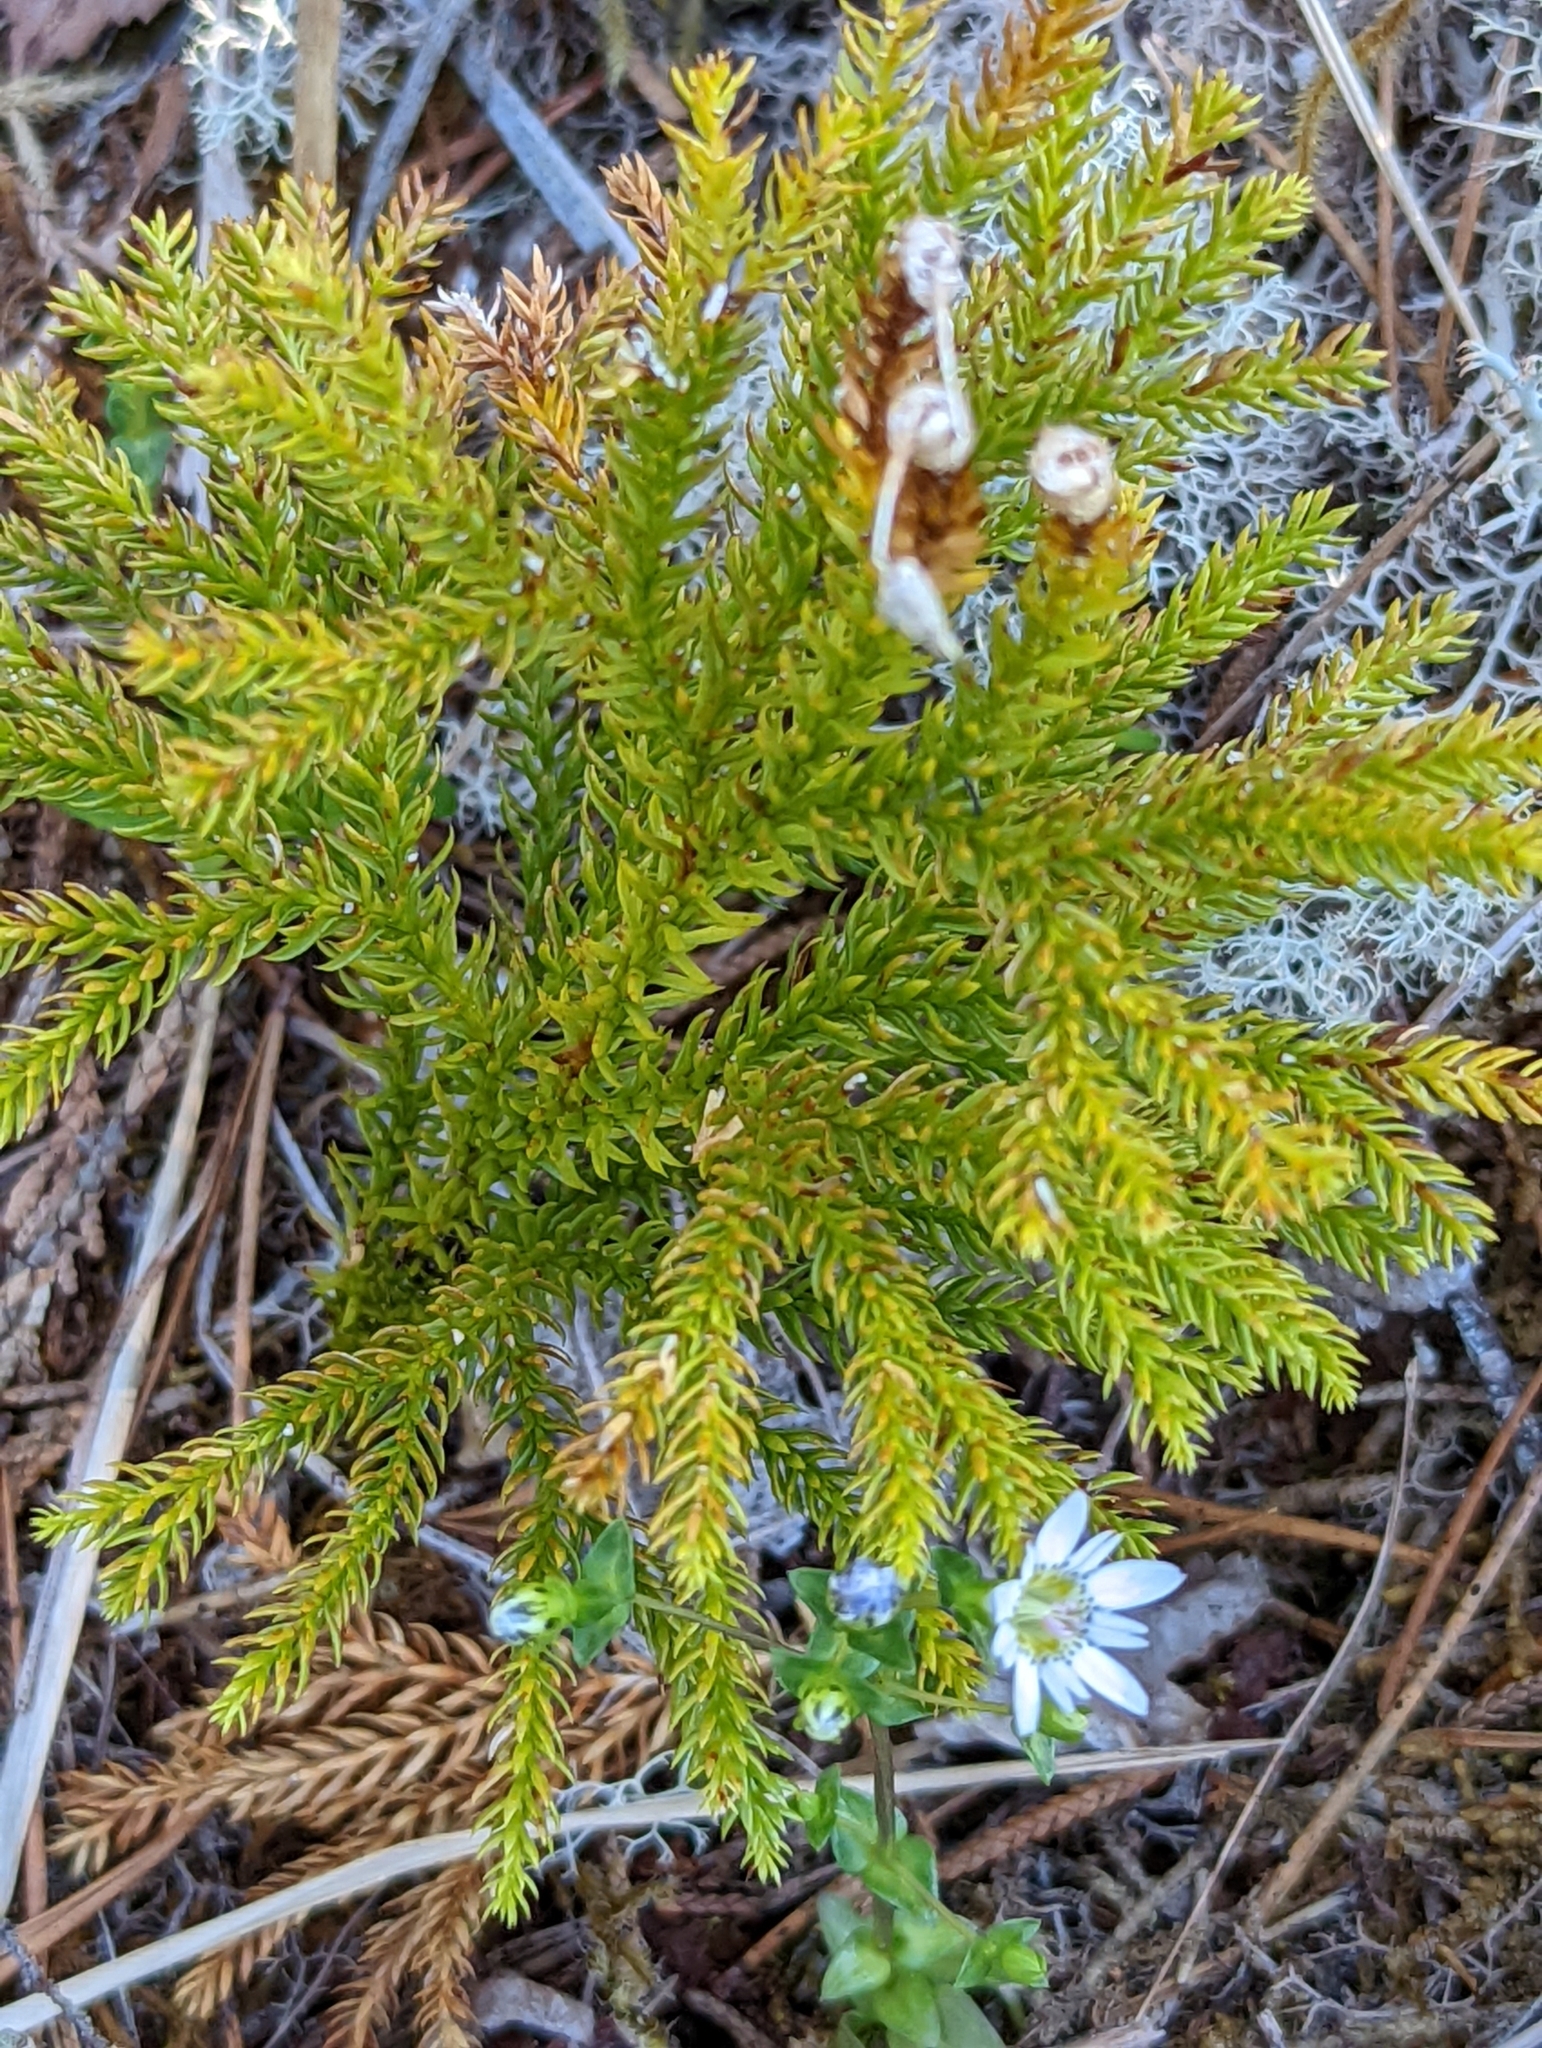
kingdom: Plantae
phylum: Tracheophyta
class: Lycopodiopsida
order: Lycopodiales
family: Lycopodiaceae
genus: Dendrolycopodium
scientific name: Dendrolycopodium dendroideum
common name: Northern tree-clubmoss
